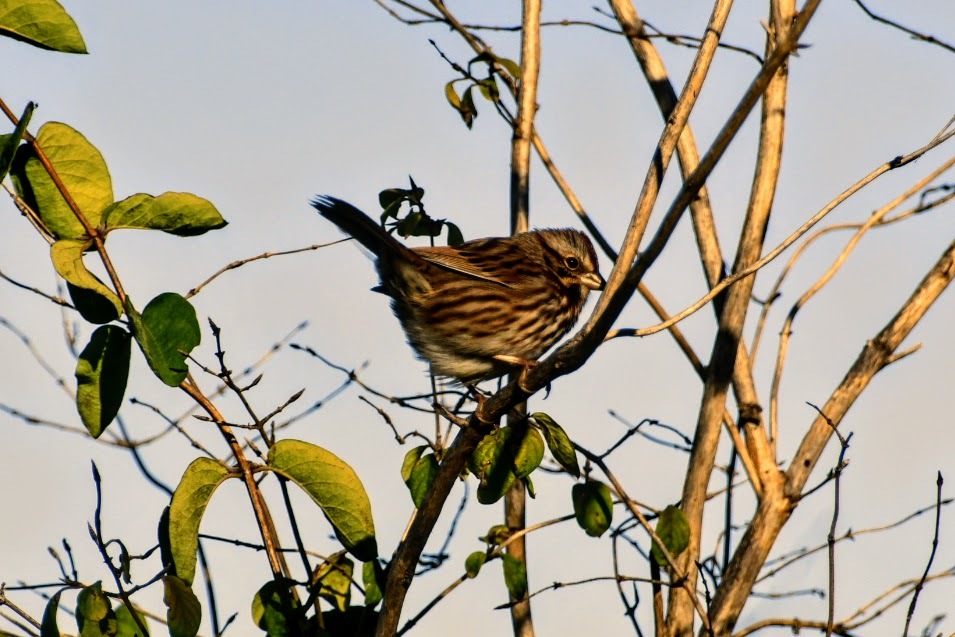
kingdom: Animalia
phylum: Chordata
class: Aves
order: Passeriformes
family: Passerellidae
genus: Melospiza
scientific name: Melospiza melodia
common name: Song sparrow
